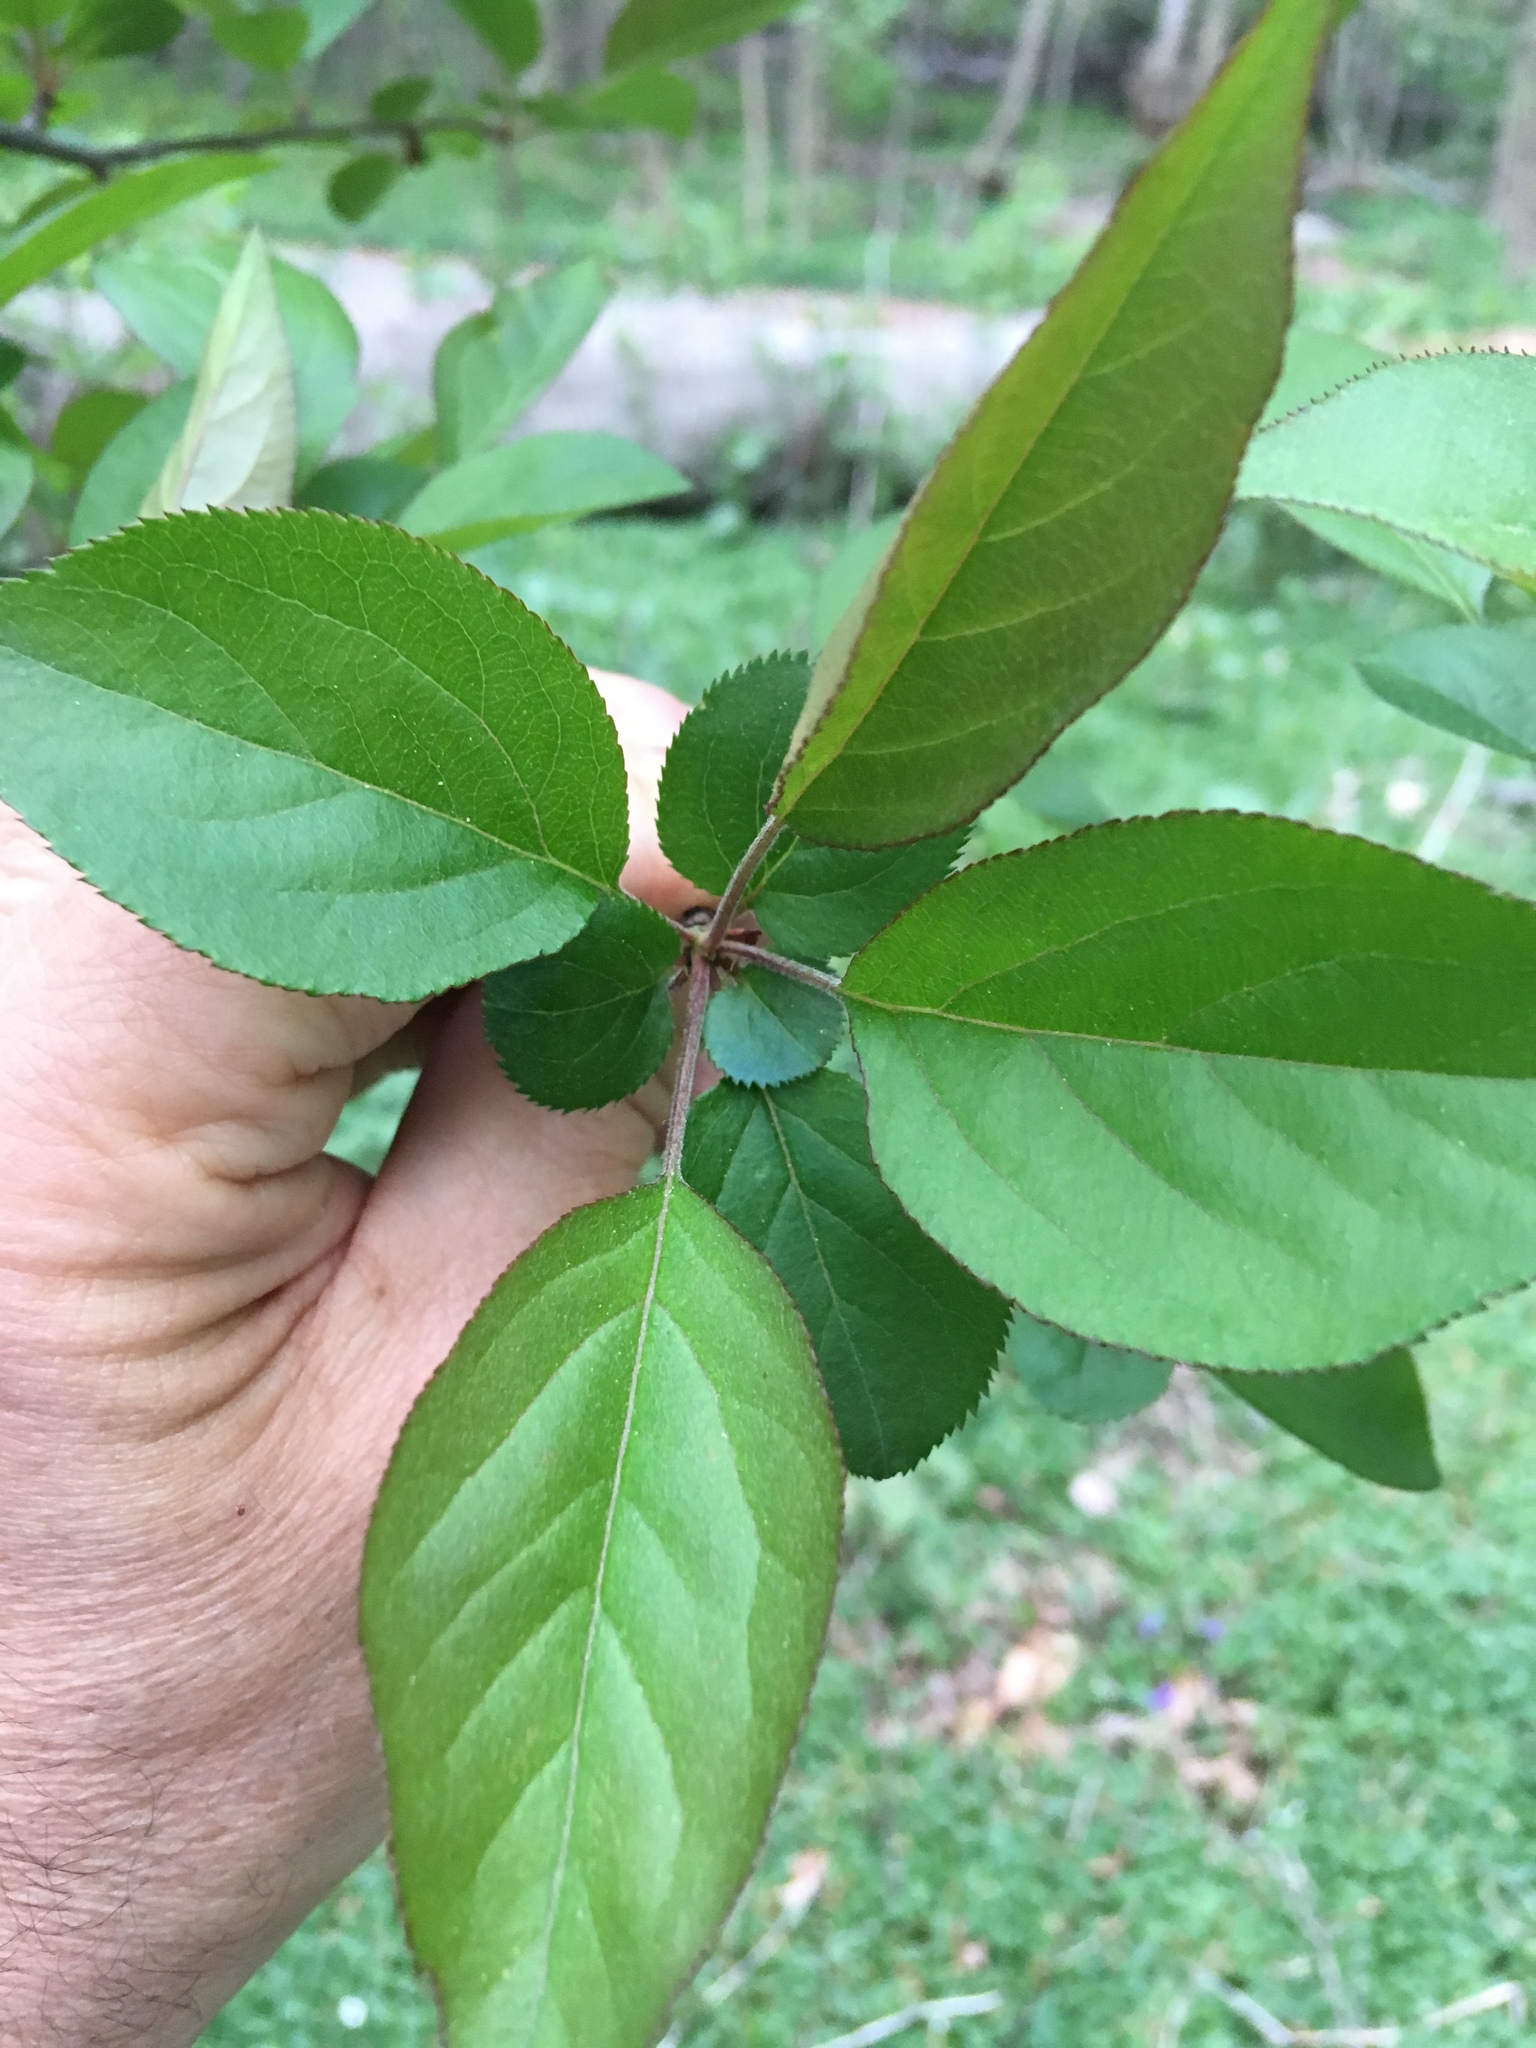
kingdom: Plantae
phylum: Tracheophyta
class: Magnoliopsida
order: Rosales
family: Rosaceae
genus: Malus
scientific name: Malus hupehensis
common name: Chinese crab apple
